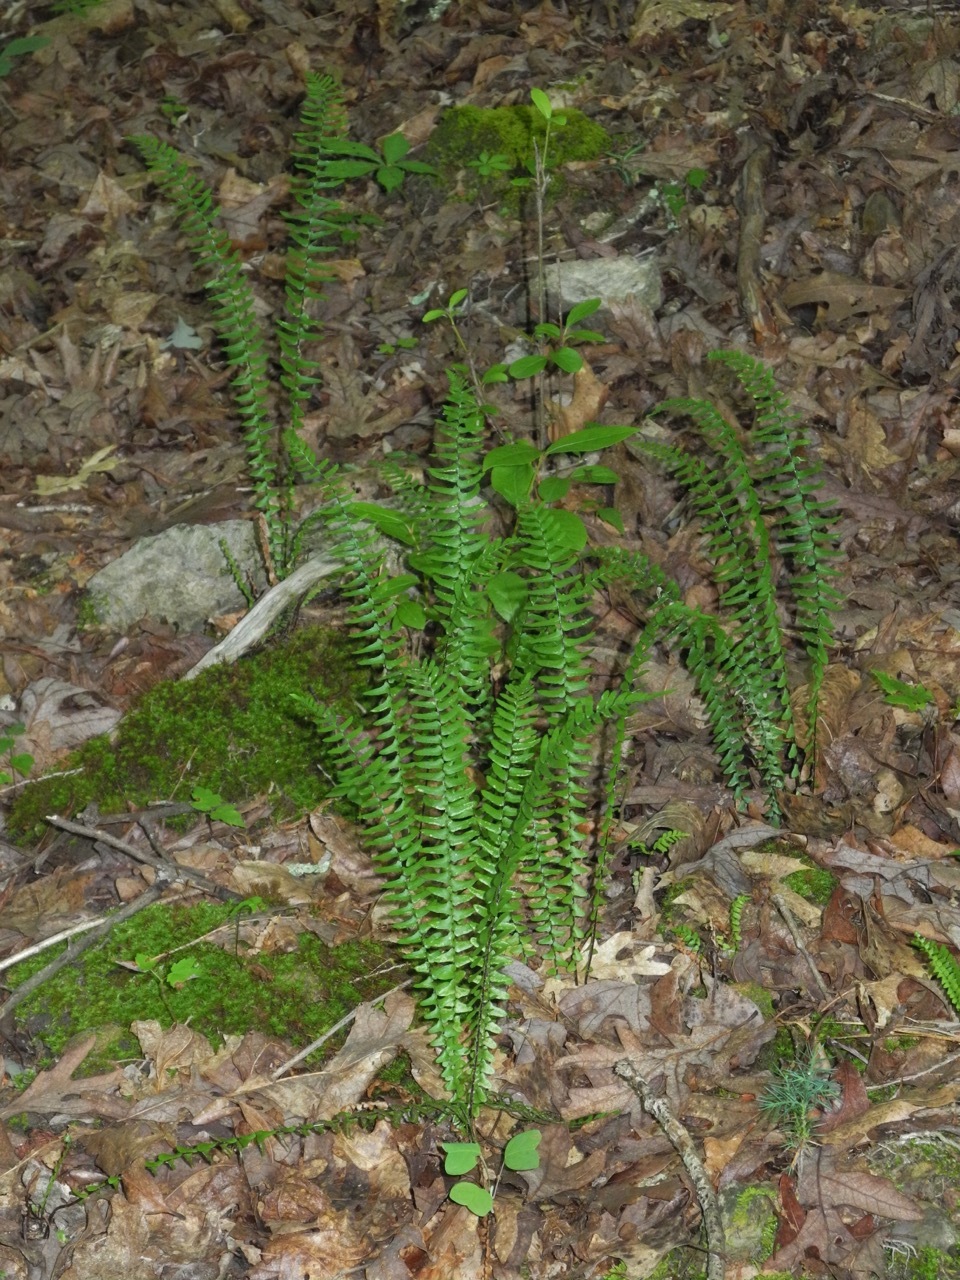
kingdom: Plantae
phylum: Tracheophyta
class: Polypodiopsida
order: Polypodiales
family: Aspleniaceae
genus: Asplenium
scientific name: Asplenium platyneuron
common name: Ebony spleenwort
